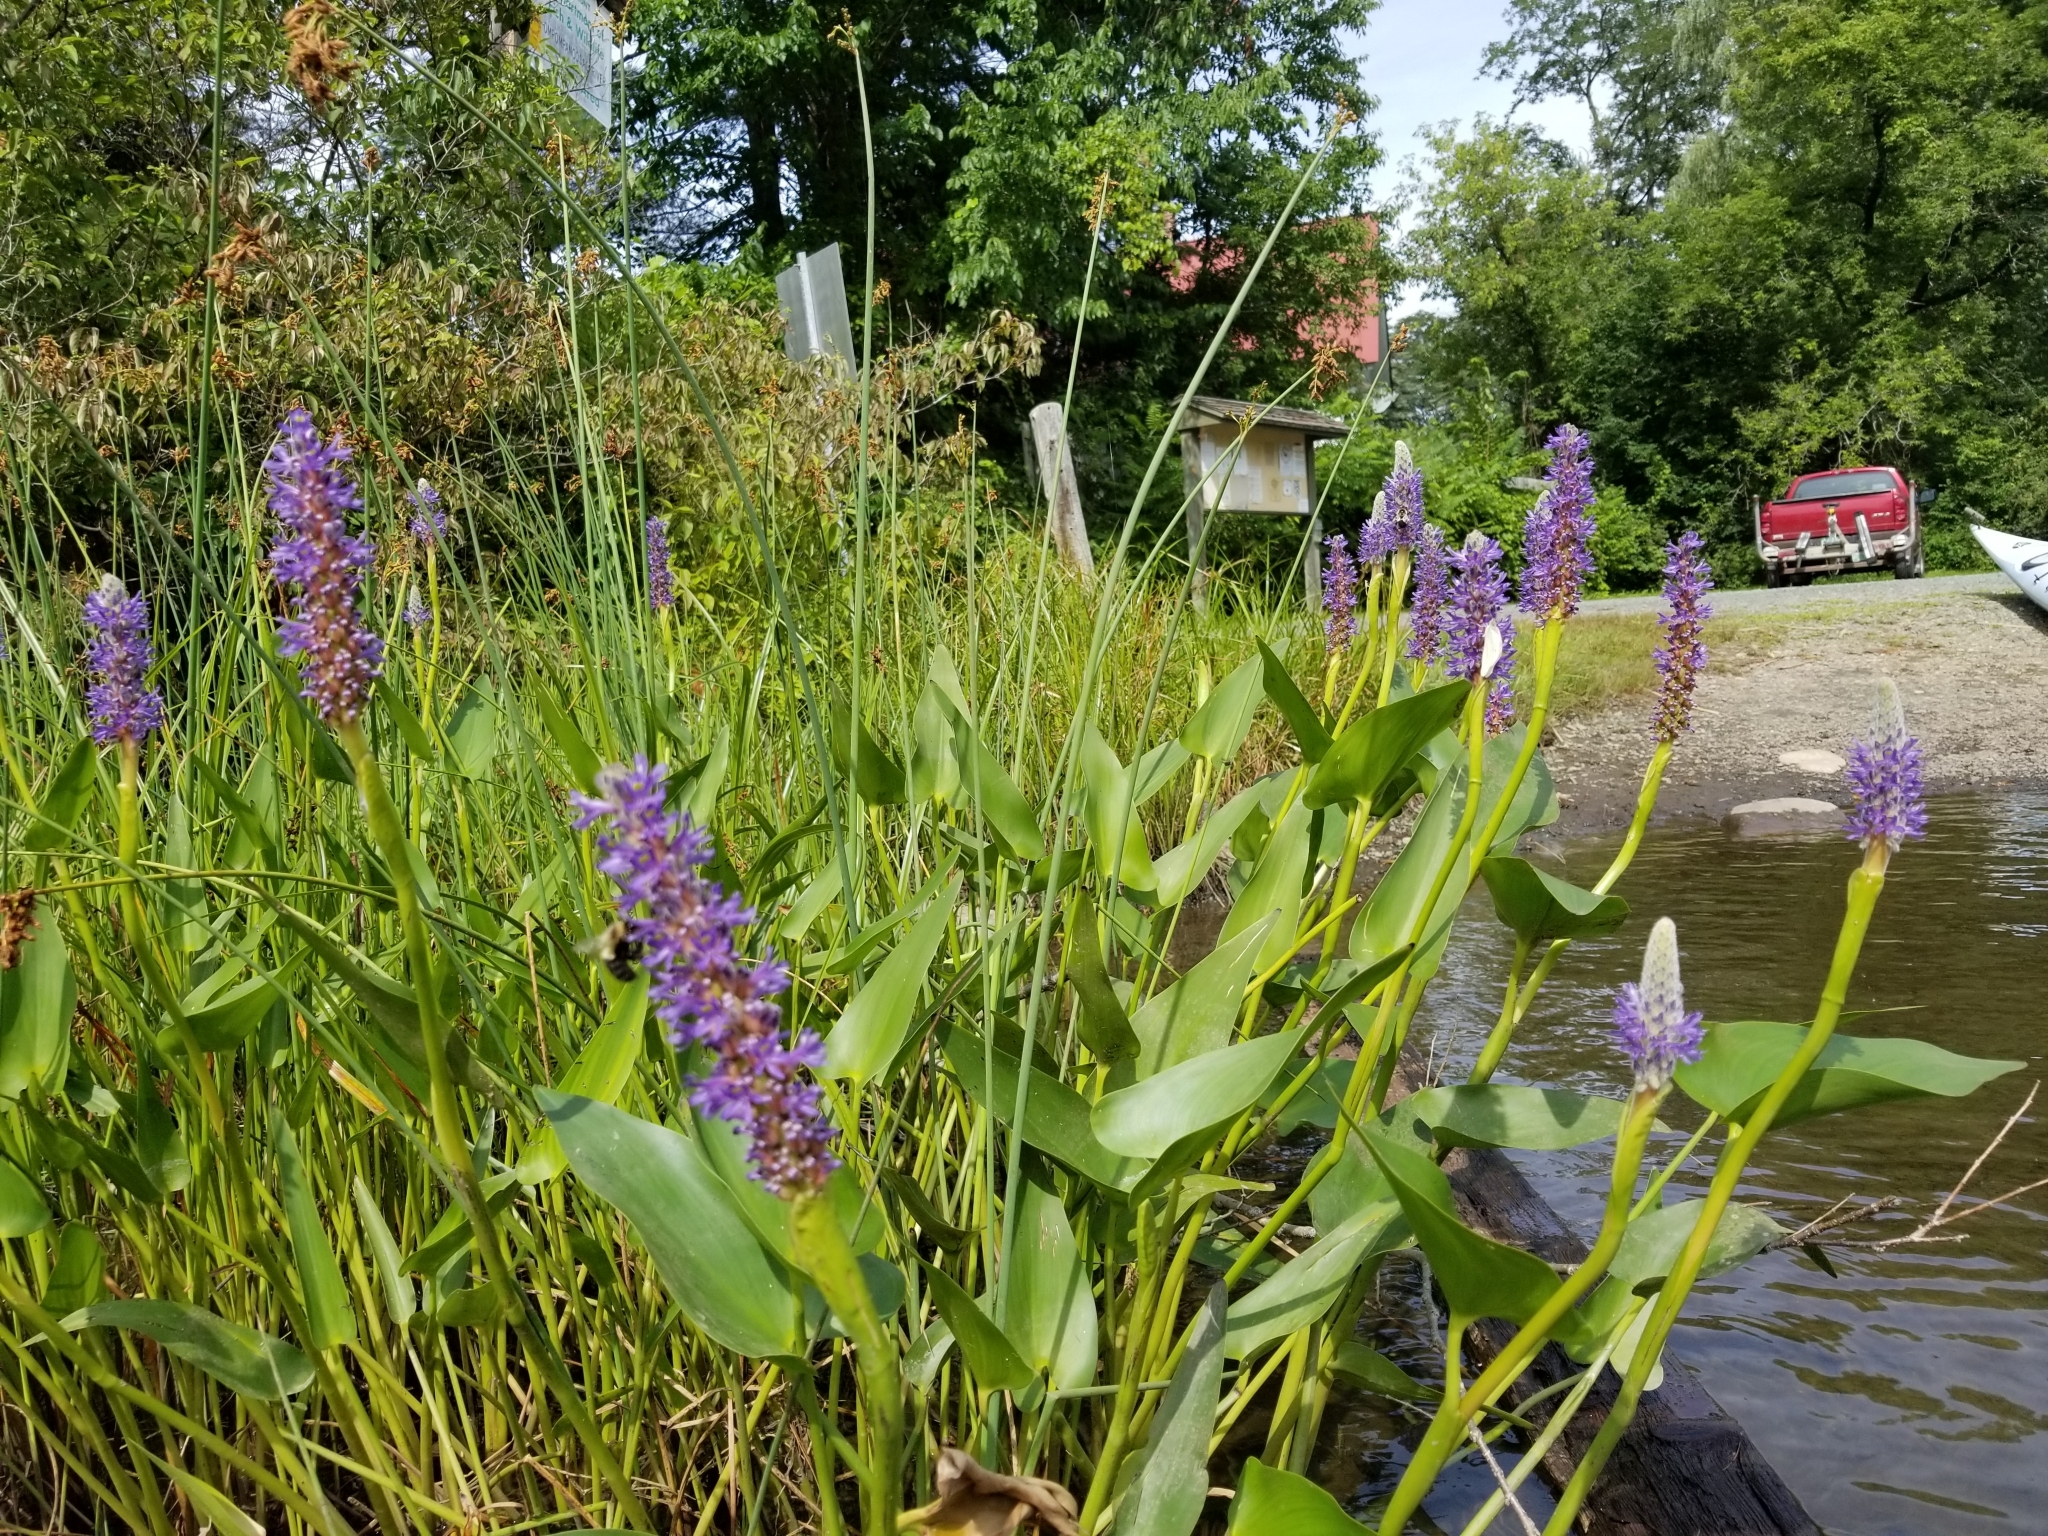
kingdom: Plantae
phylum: Tracheophyta
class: Liliopsida
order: Commelinales
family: Pontederiaceae
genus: Pontederia
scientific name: Pontederia cordata
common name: Pickerelweed
